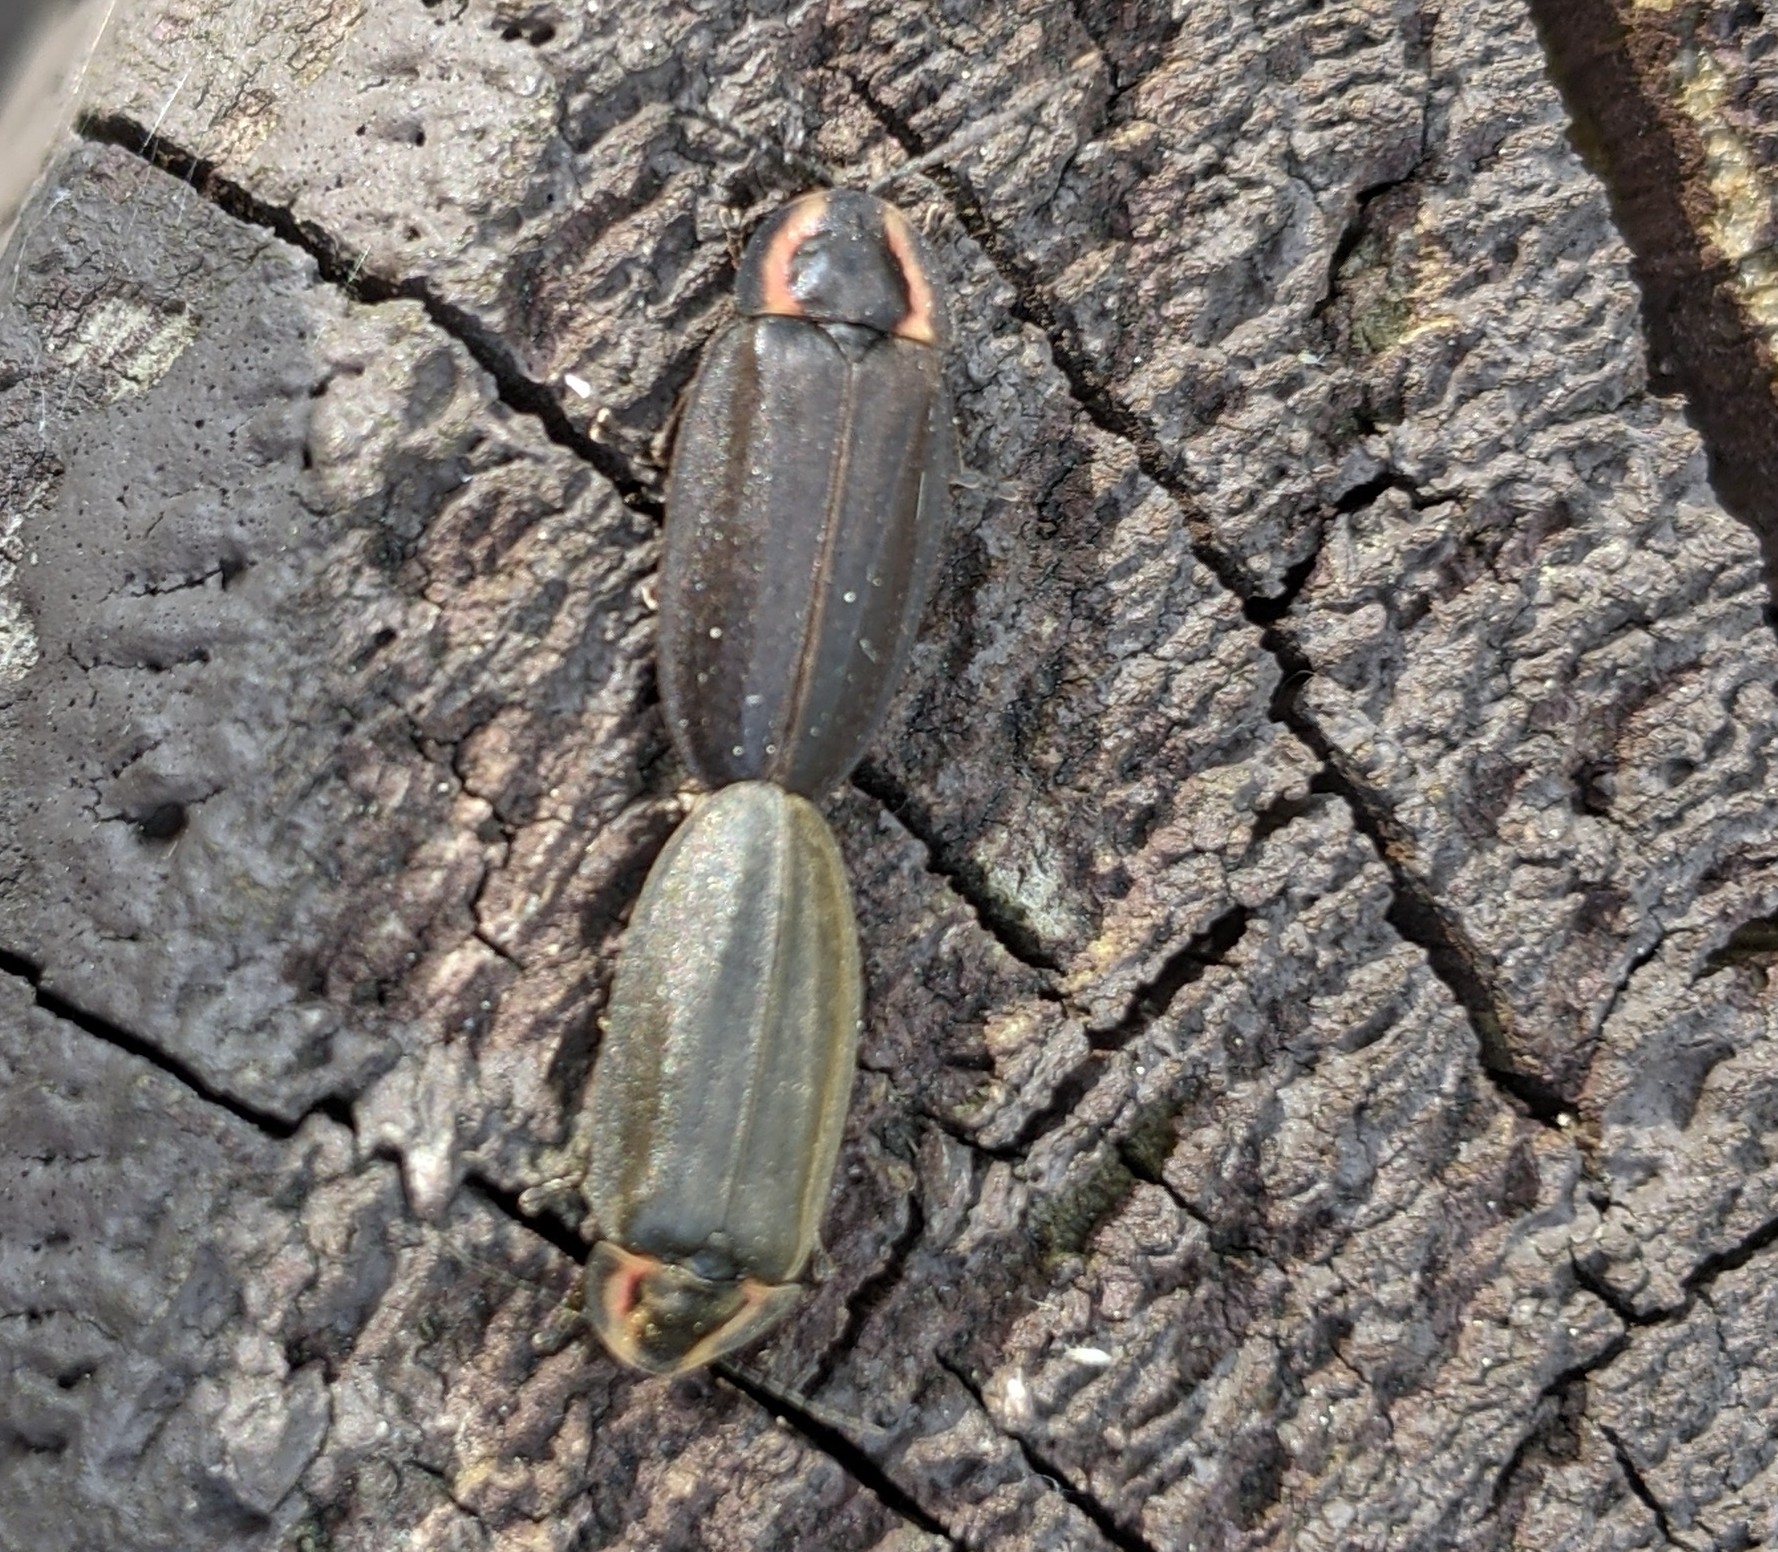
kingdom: Animalia
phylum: Arthropoda
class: Insecta
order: Coleoptera
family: Lampyridae
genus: Photinus
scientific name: Photinus corrusca
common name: Winter firefly
